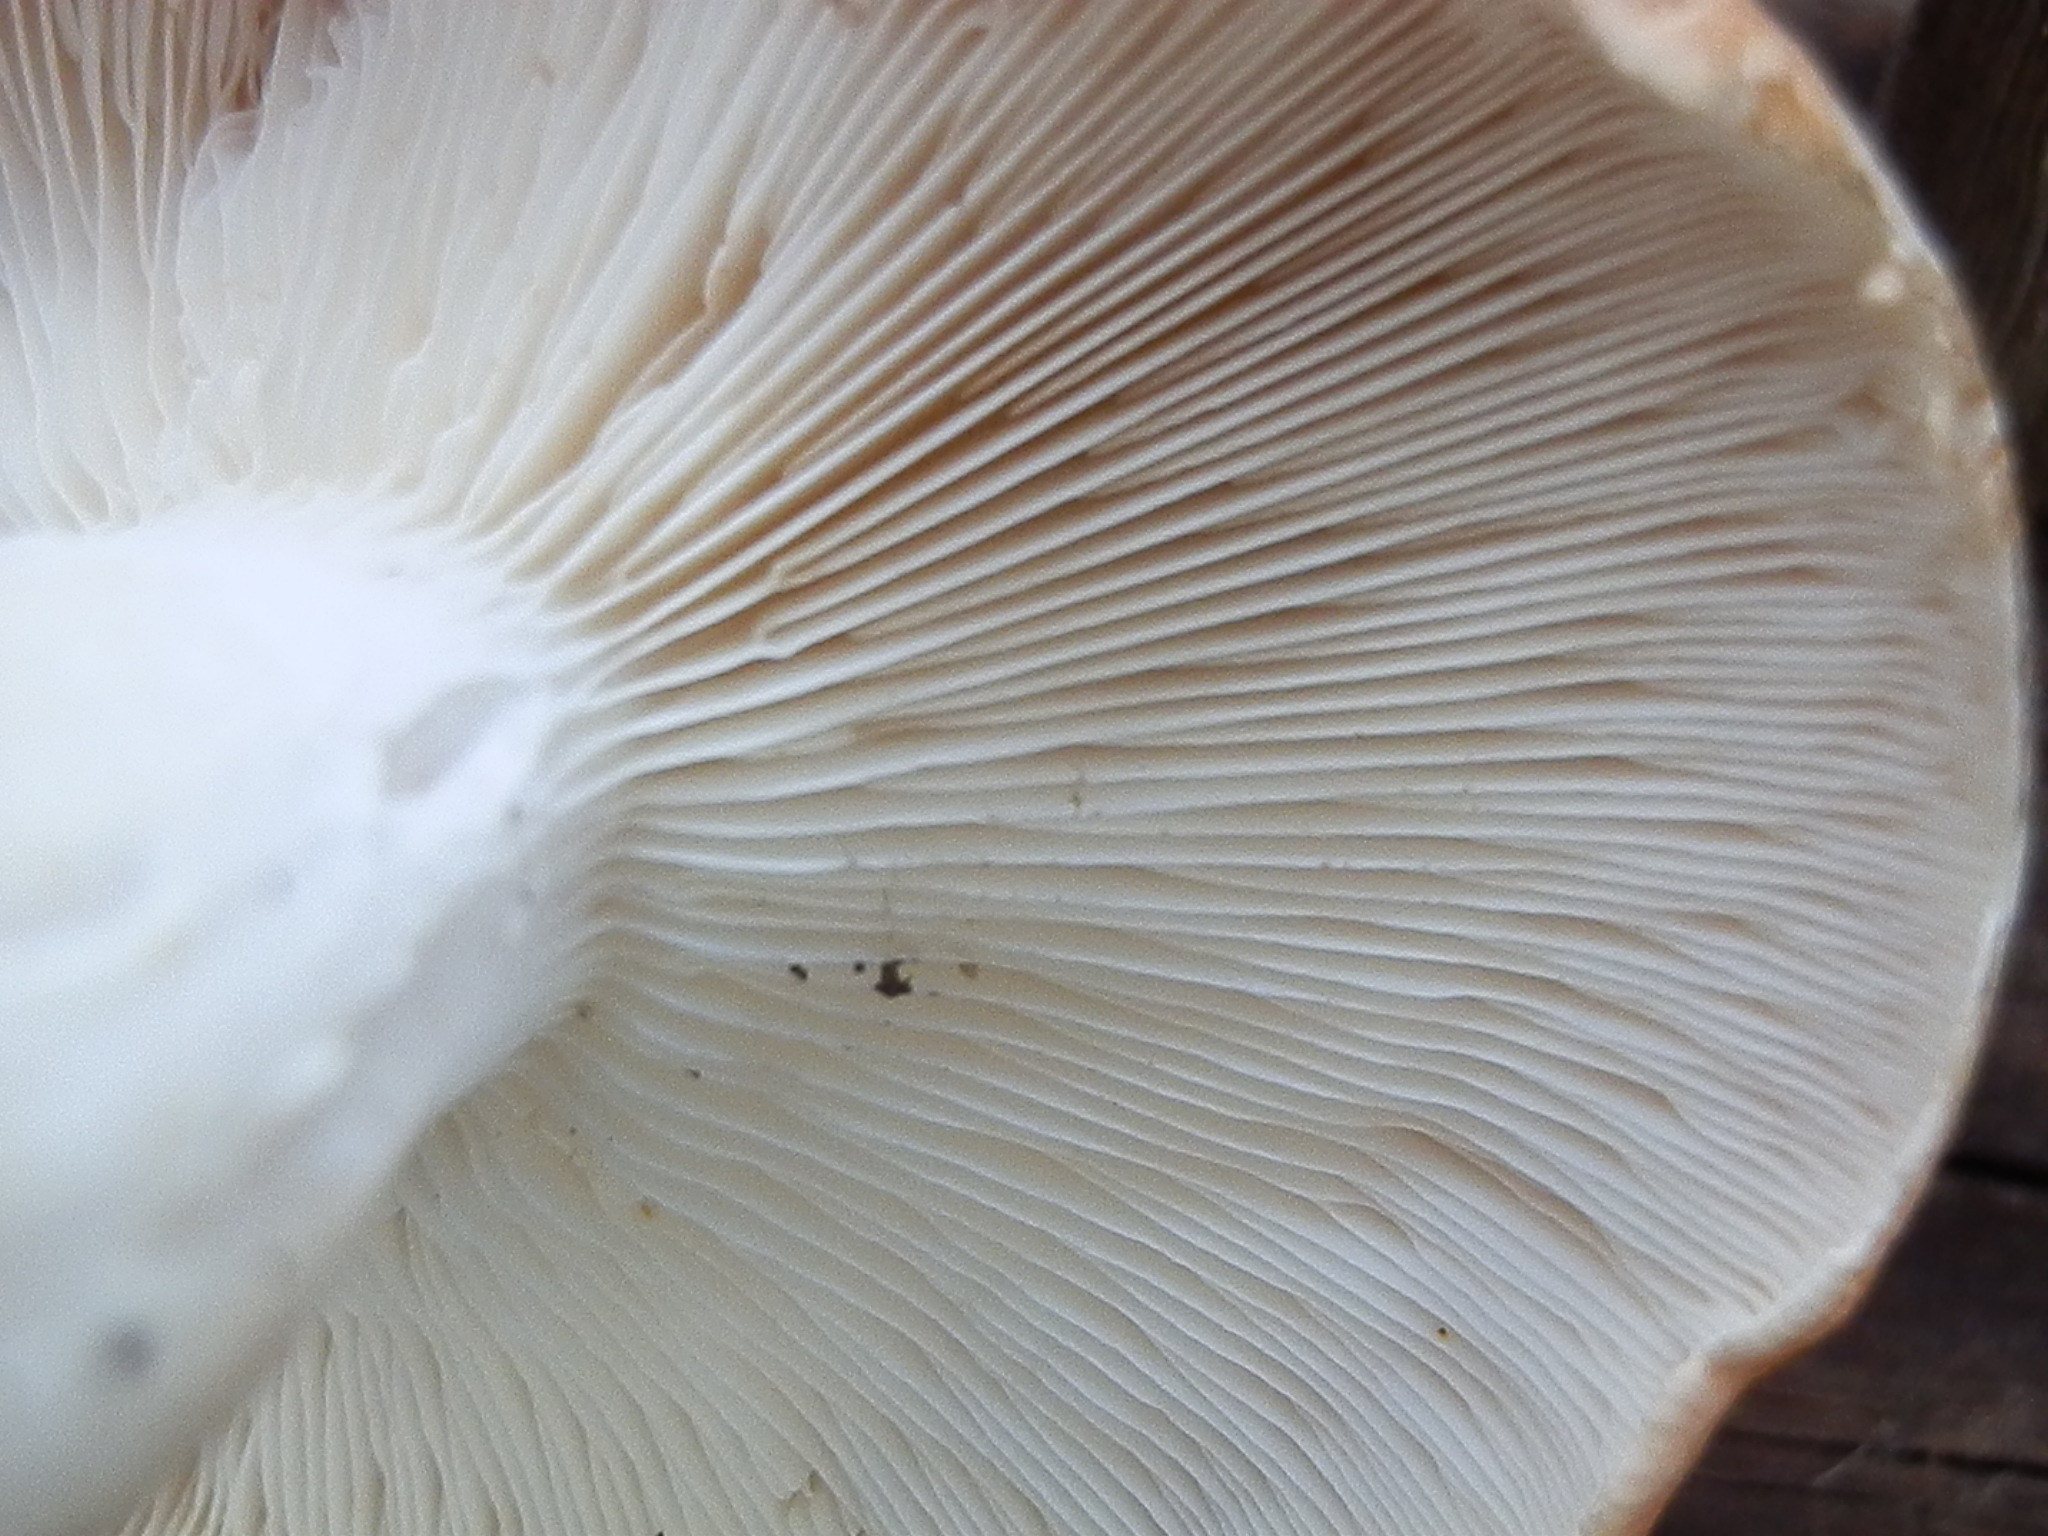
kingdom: Fungi
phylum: Basidiomycota
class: Agaricomycetes
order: Agaricales
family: Tricholomataceae
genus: Leucopaxillus
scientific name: Leucopaxillus gentianeus
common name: Bitter funnel
